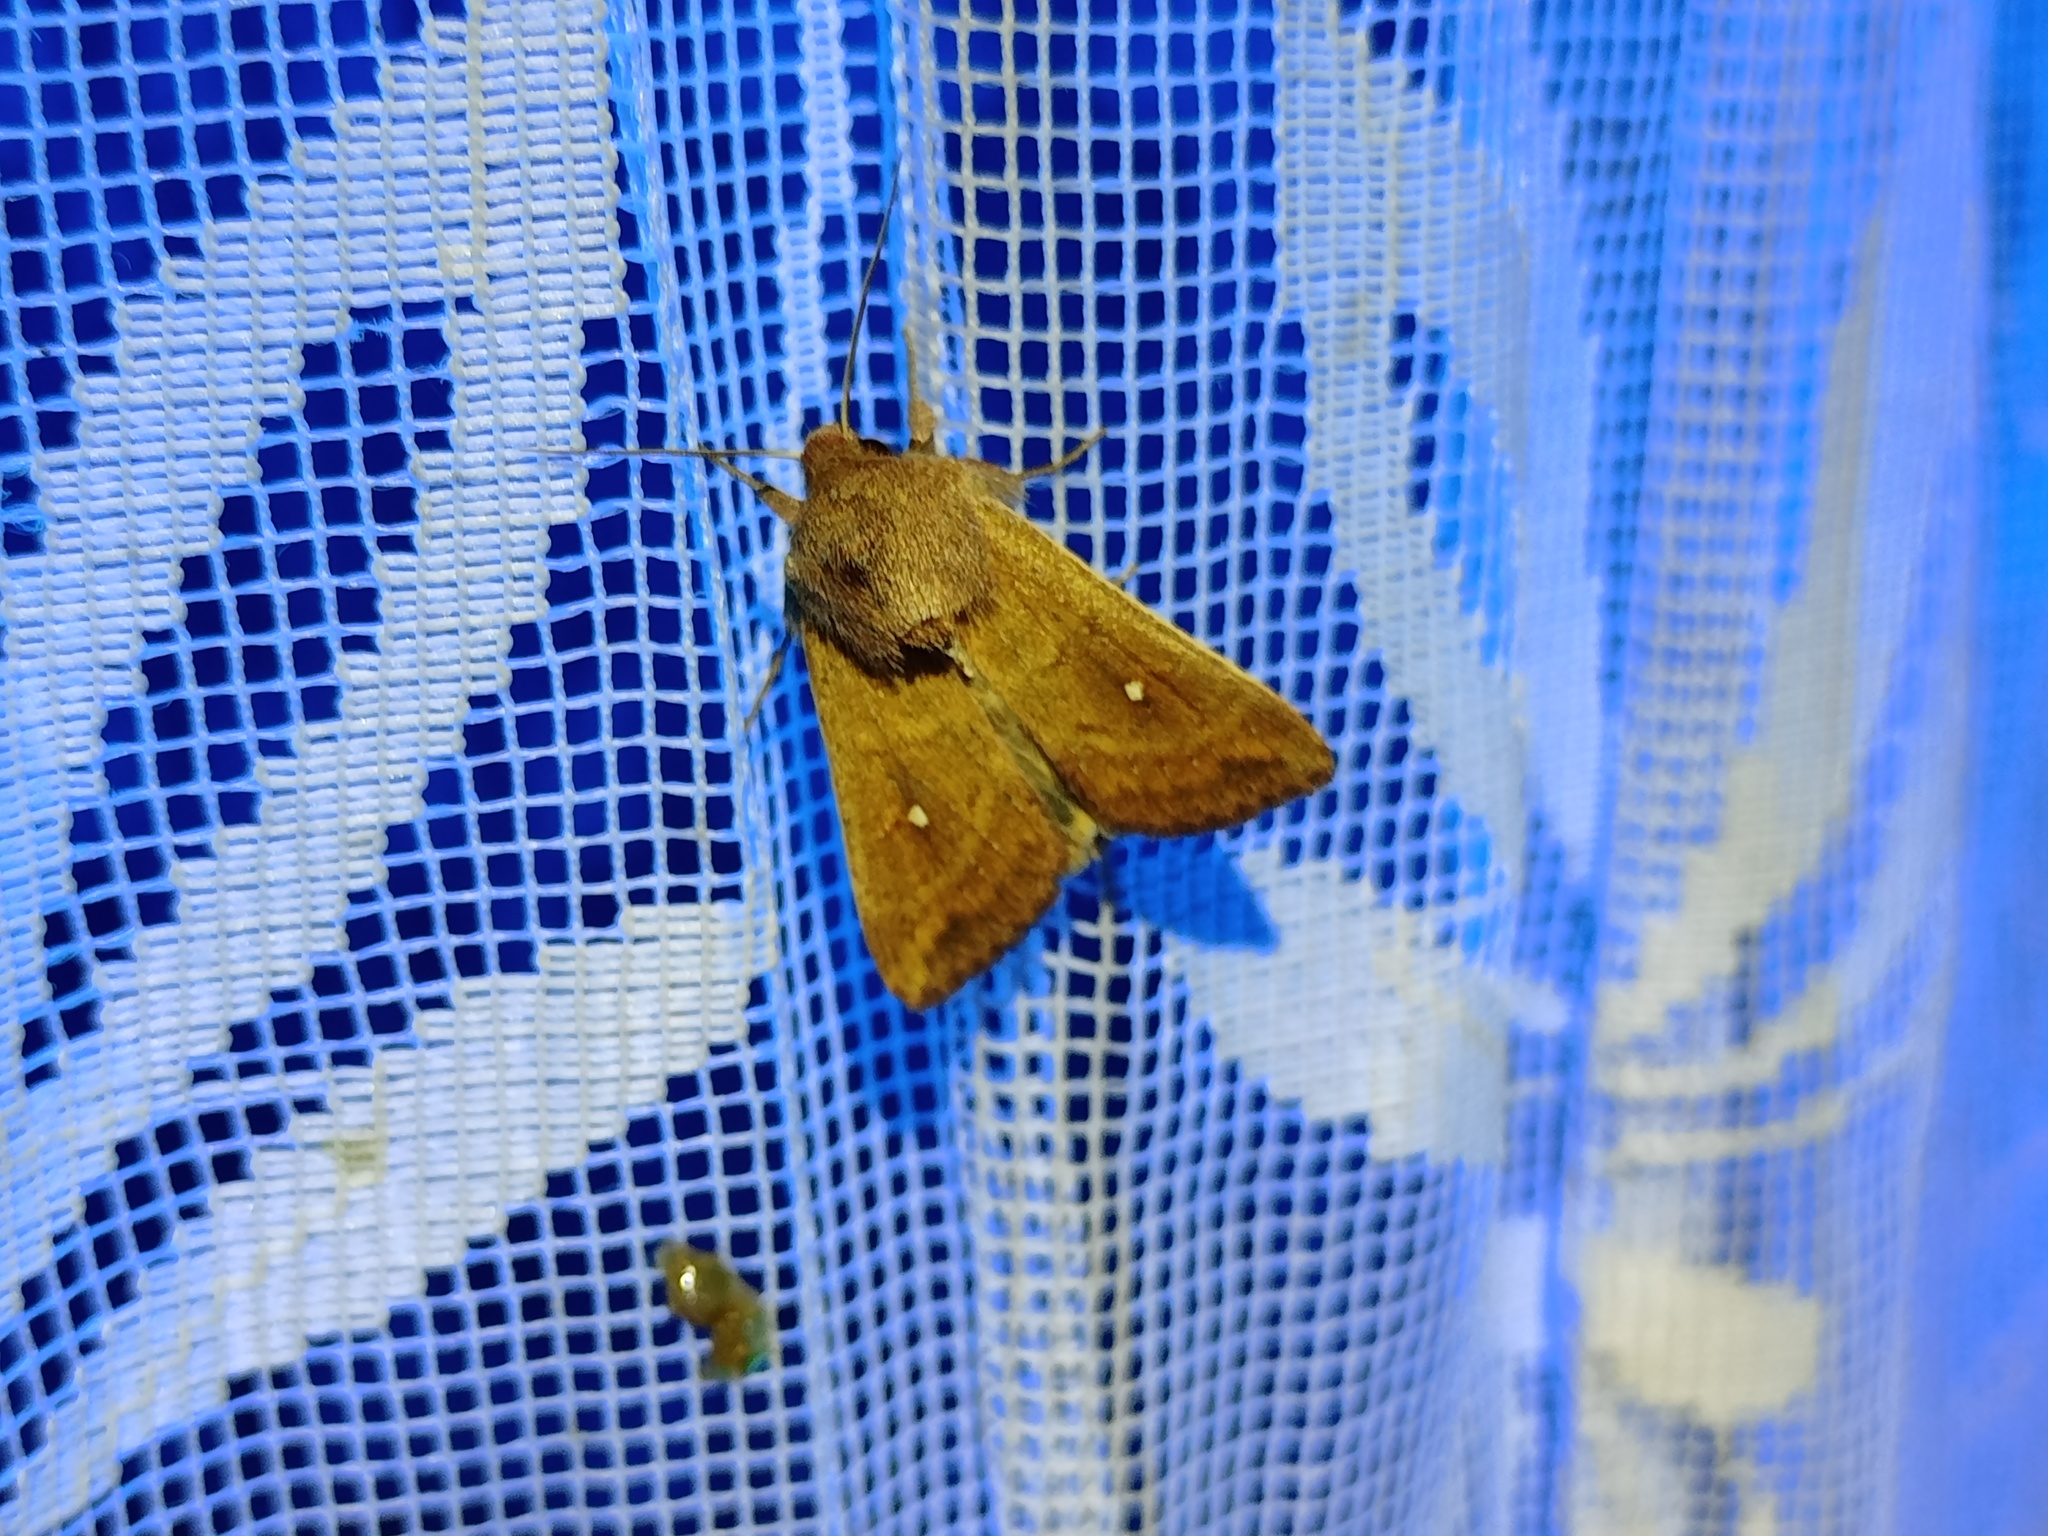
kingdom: Animalia
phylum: Arthropoda
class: Insecta
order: Lepidoptera
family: Noctuidae
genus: Mythimna
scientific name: Mythimna albipuncta
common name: White-point
